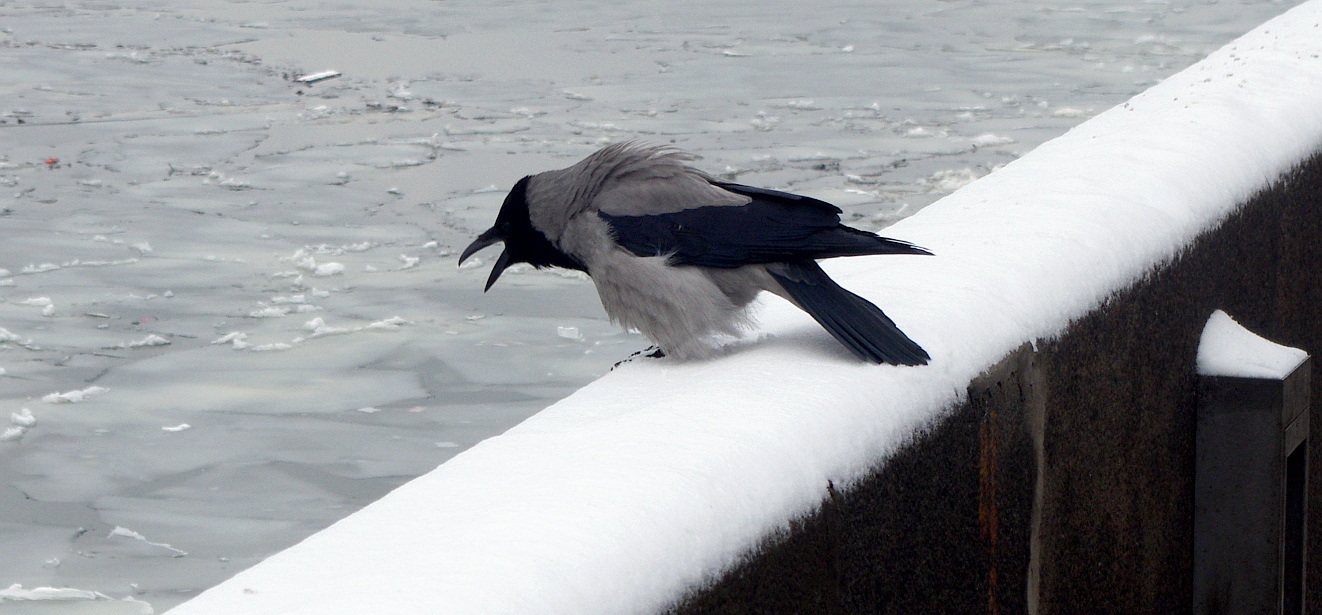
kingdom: Animalia
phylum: Chordata
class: Aves
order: Passeriformes
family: Corvidae
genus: Corvus
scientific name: Corvus cornix
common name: Hooded crow
